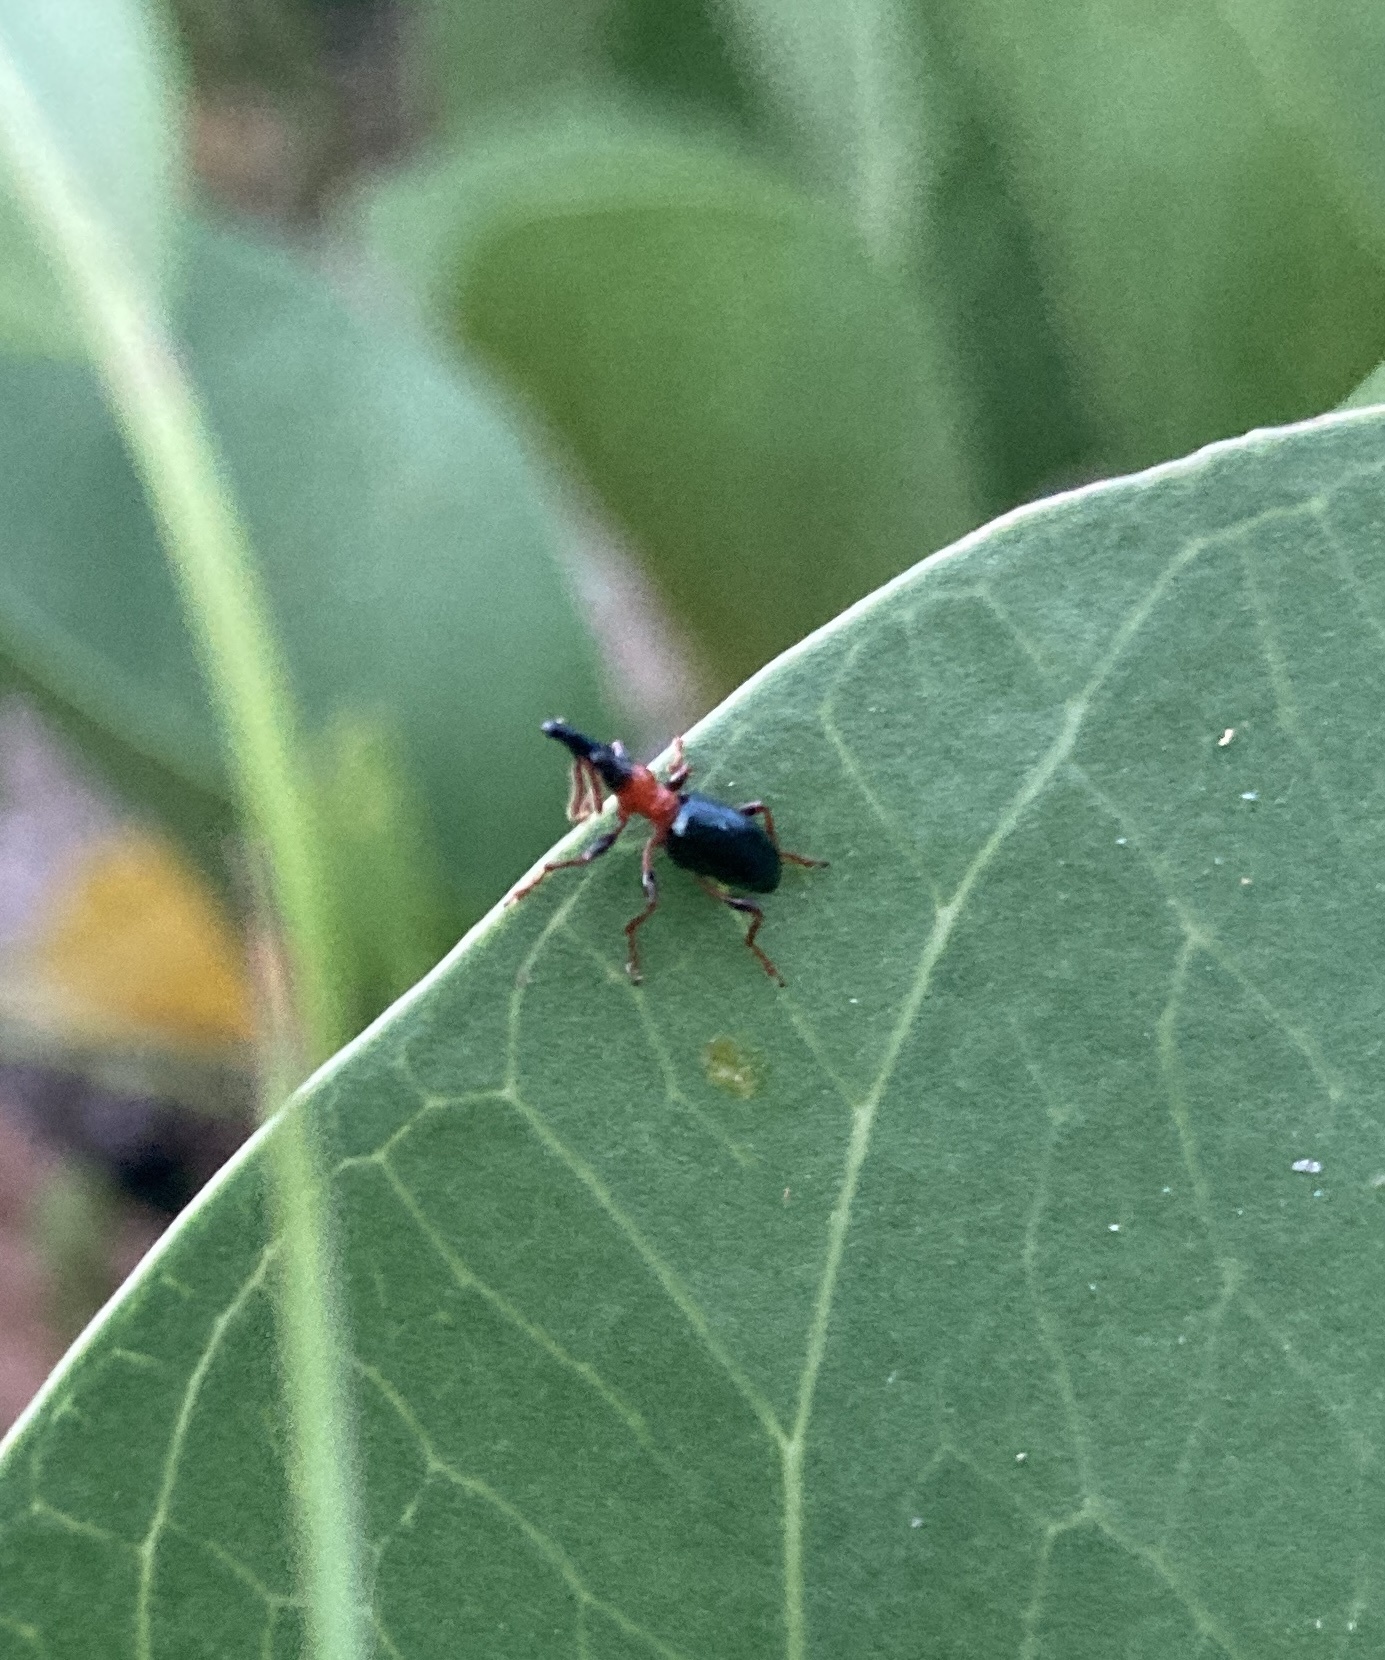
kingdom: Animalia
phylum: Arthropoda
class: Insecta
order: Coleoptera
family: Brentidae
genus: Cylas
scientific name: Cylas formicarius
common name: Sweetpotato weevil
